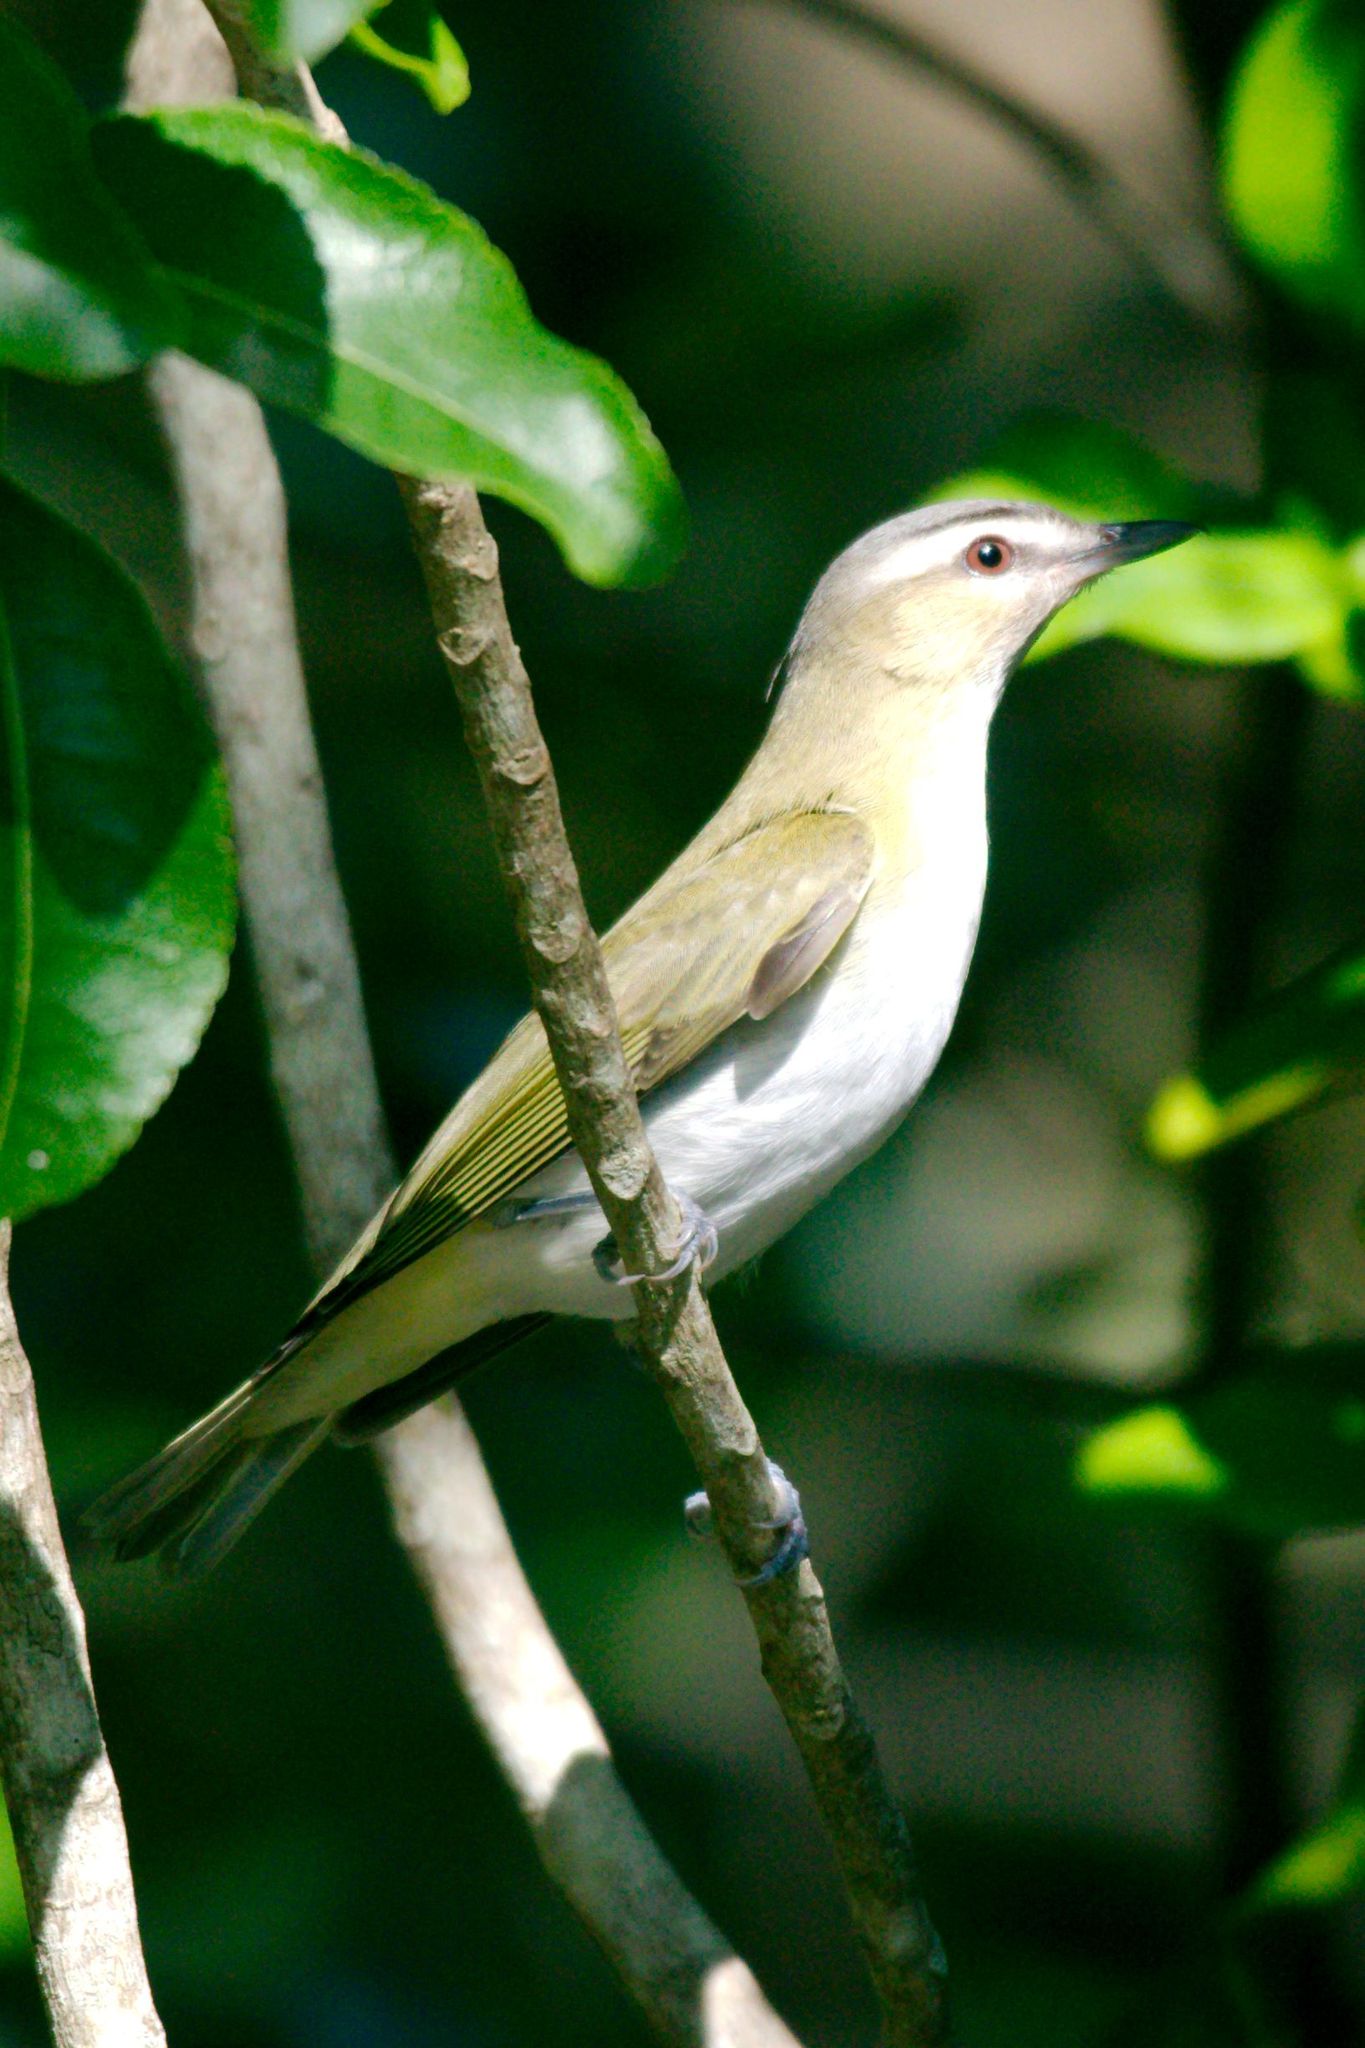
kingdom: Animalia
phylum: Chordata
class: Aves
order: Passeriformes
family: Vireonidae
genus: Vireo
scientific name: Vireo olivaceus
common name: Red-eyed vireo
